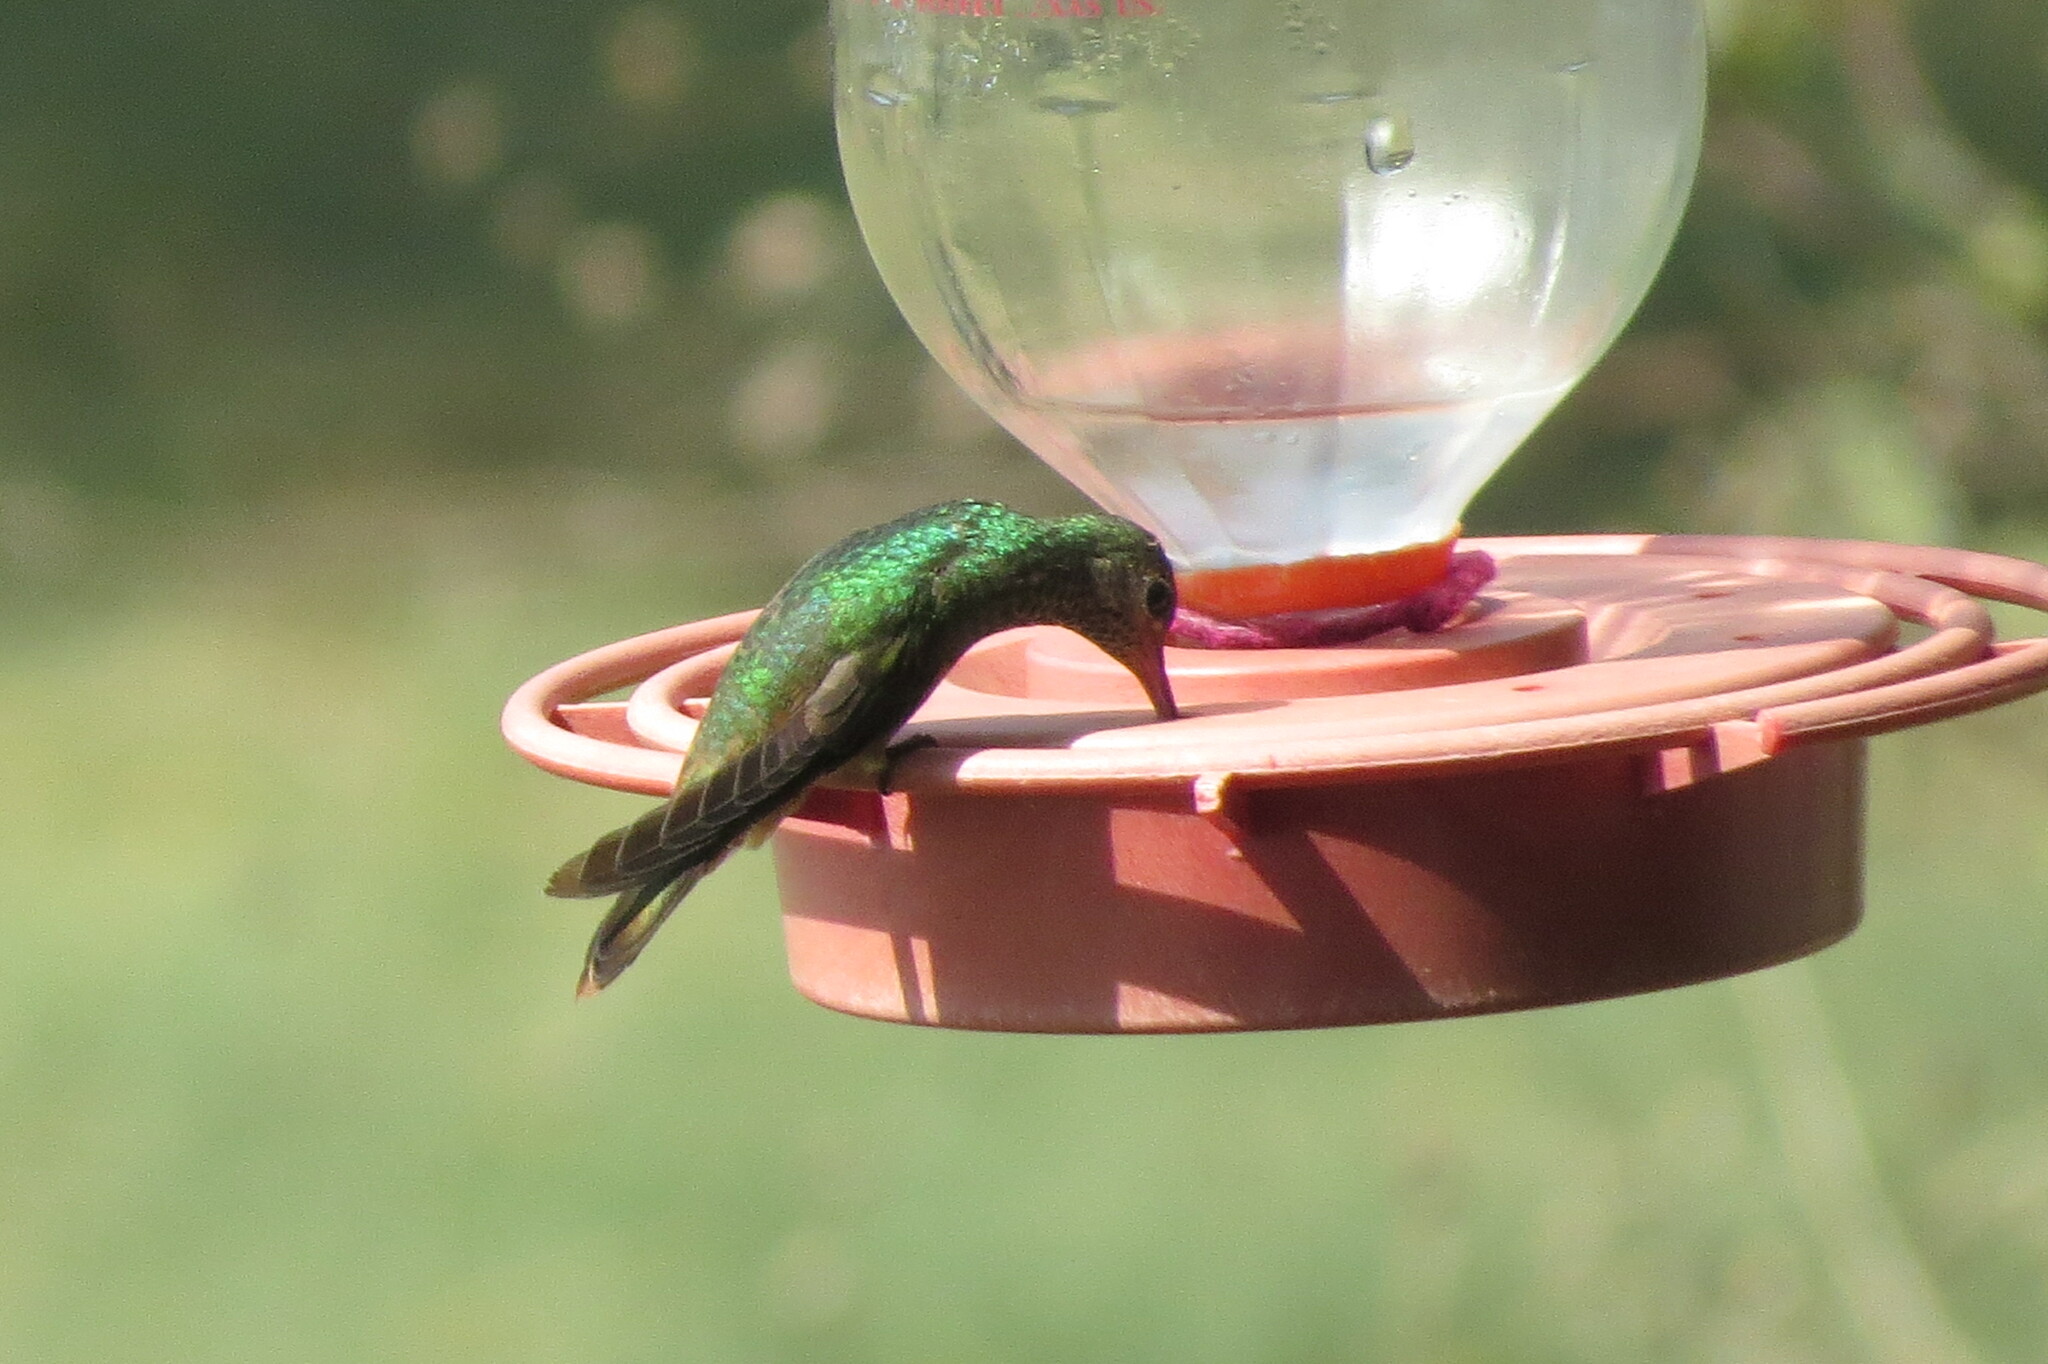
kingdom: Animalia
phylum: Chordata
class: Aves
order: Apodiformes
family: Trochilidae
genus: Amazilia
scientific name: Amazilia yucatanensis
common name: Buff-bellied hummingbird
